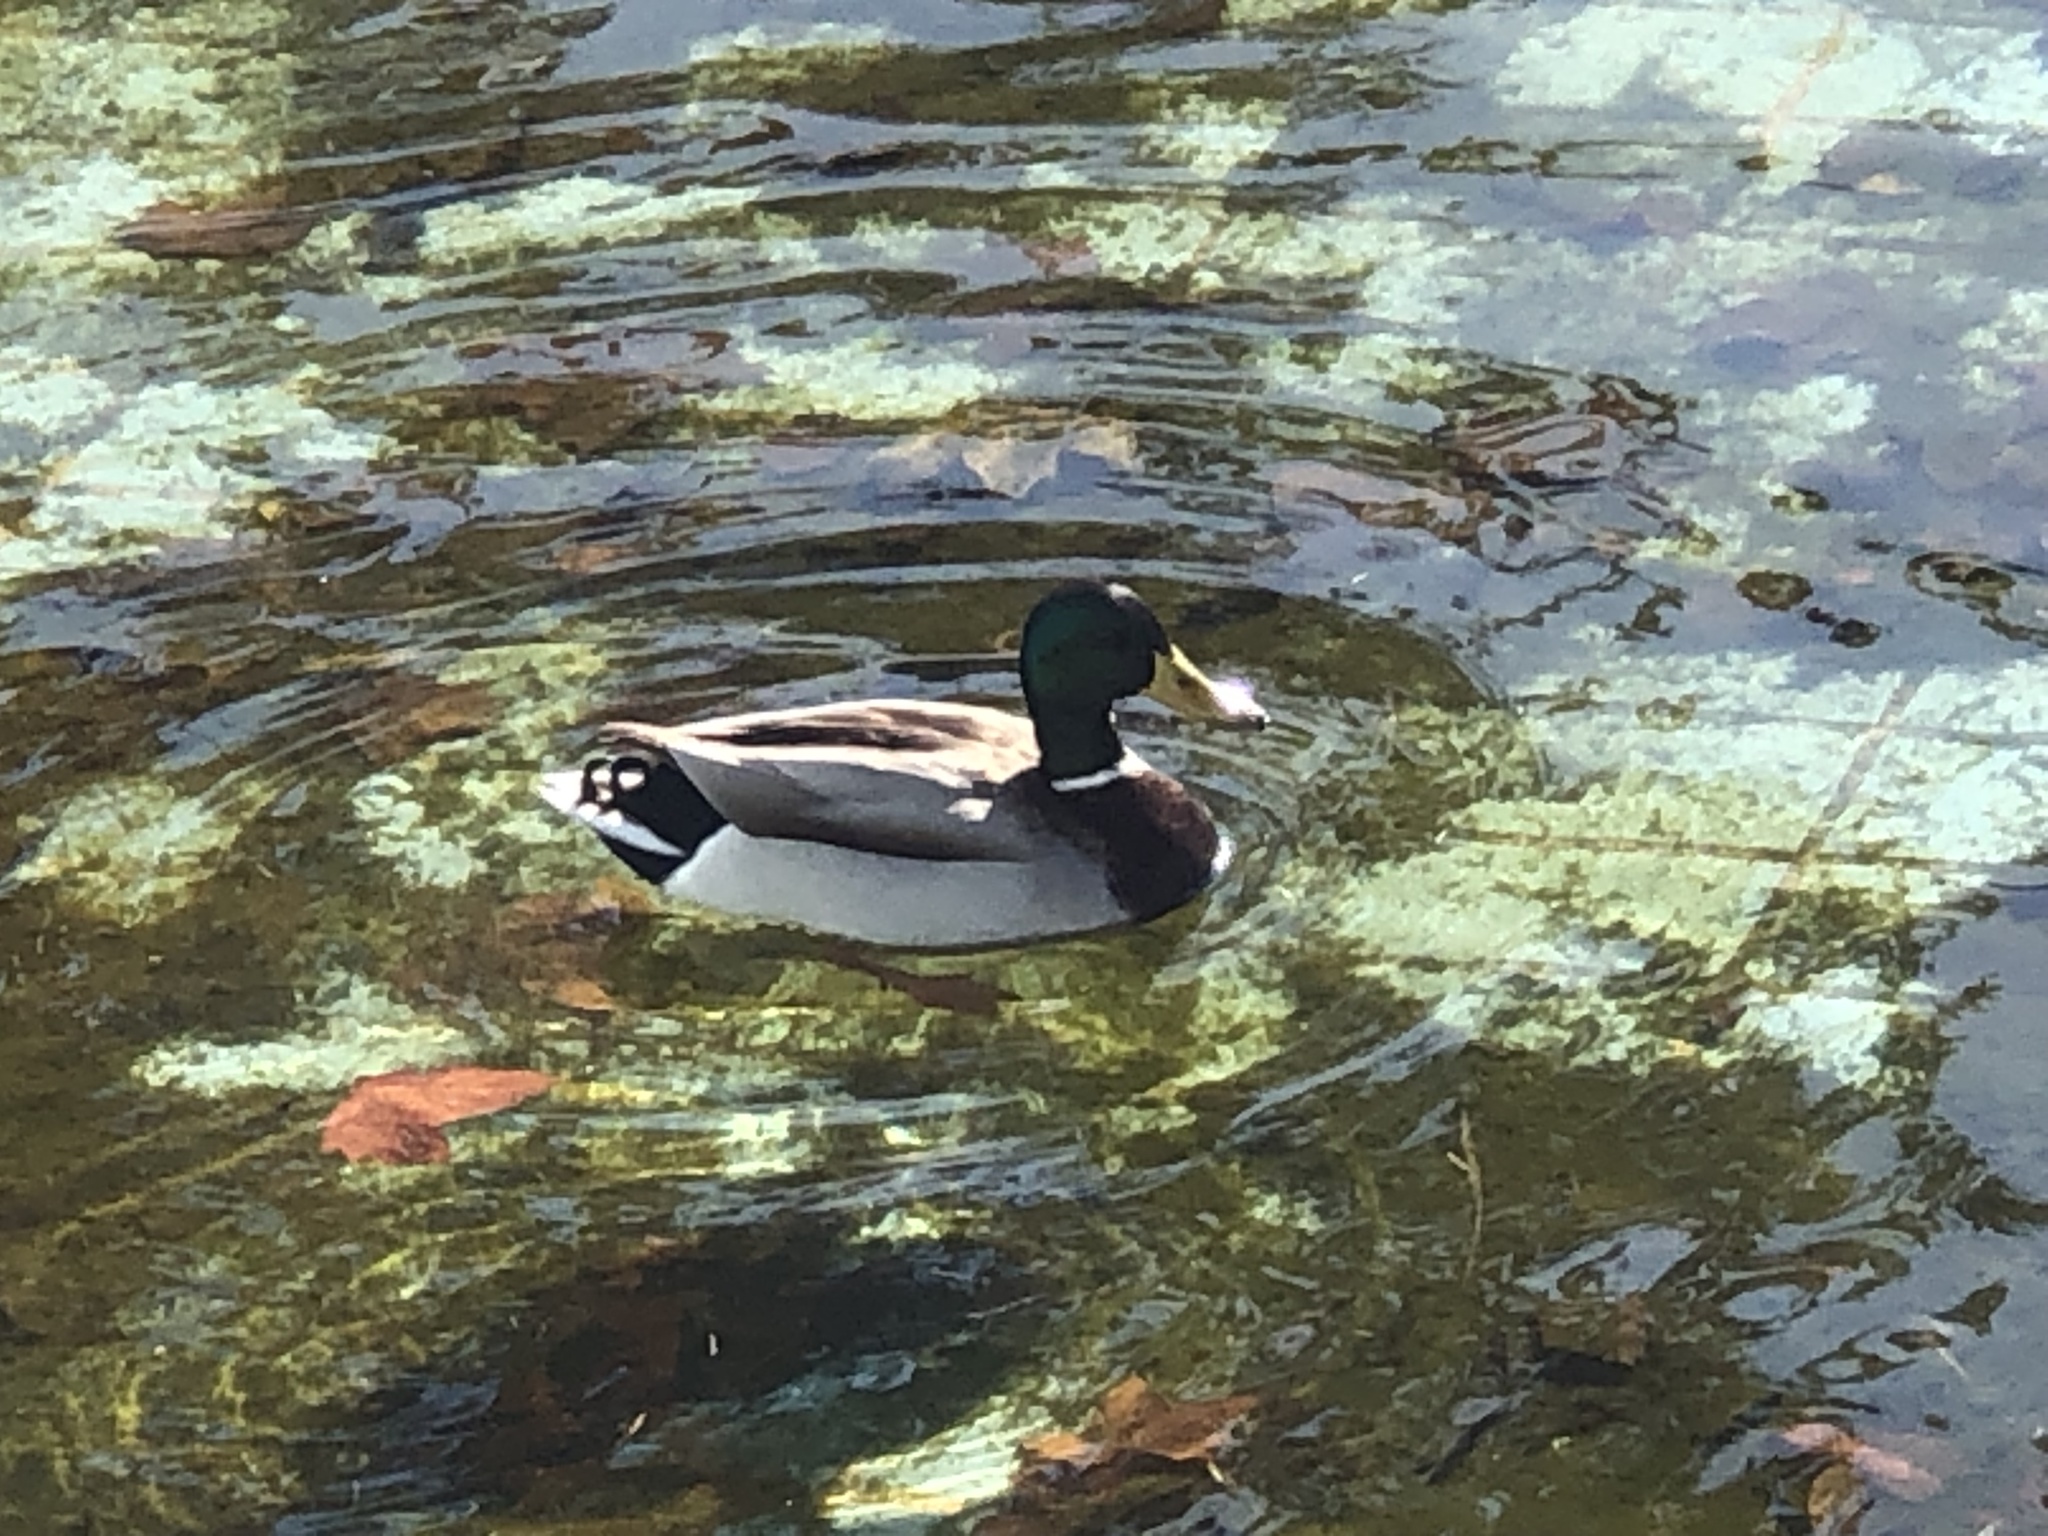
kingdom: Animalia
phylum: Chordata
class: Aves
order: Anseriformes
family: Anatidae
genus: Anas
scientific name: Anas platyrhynchos
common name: Mallard
